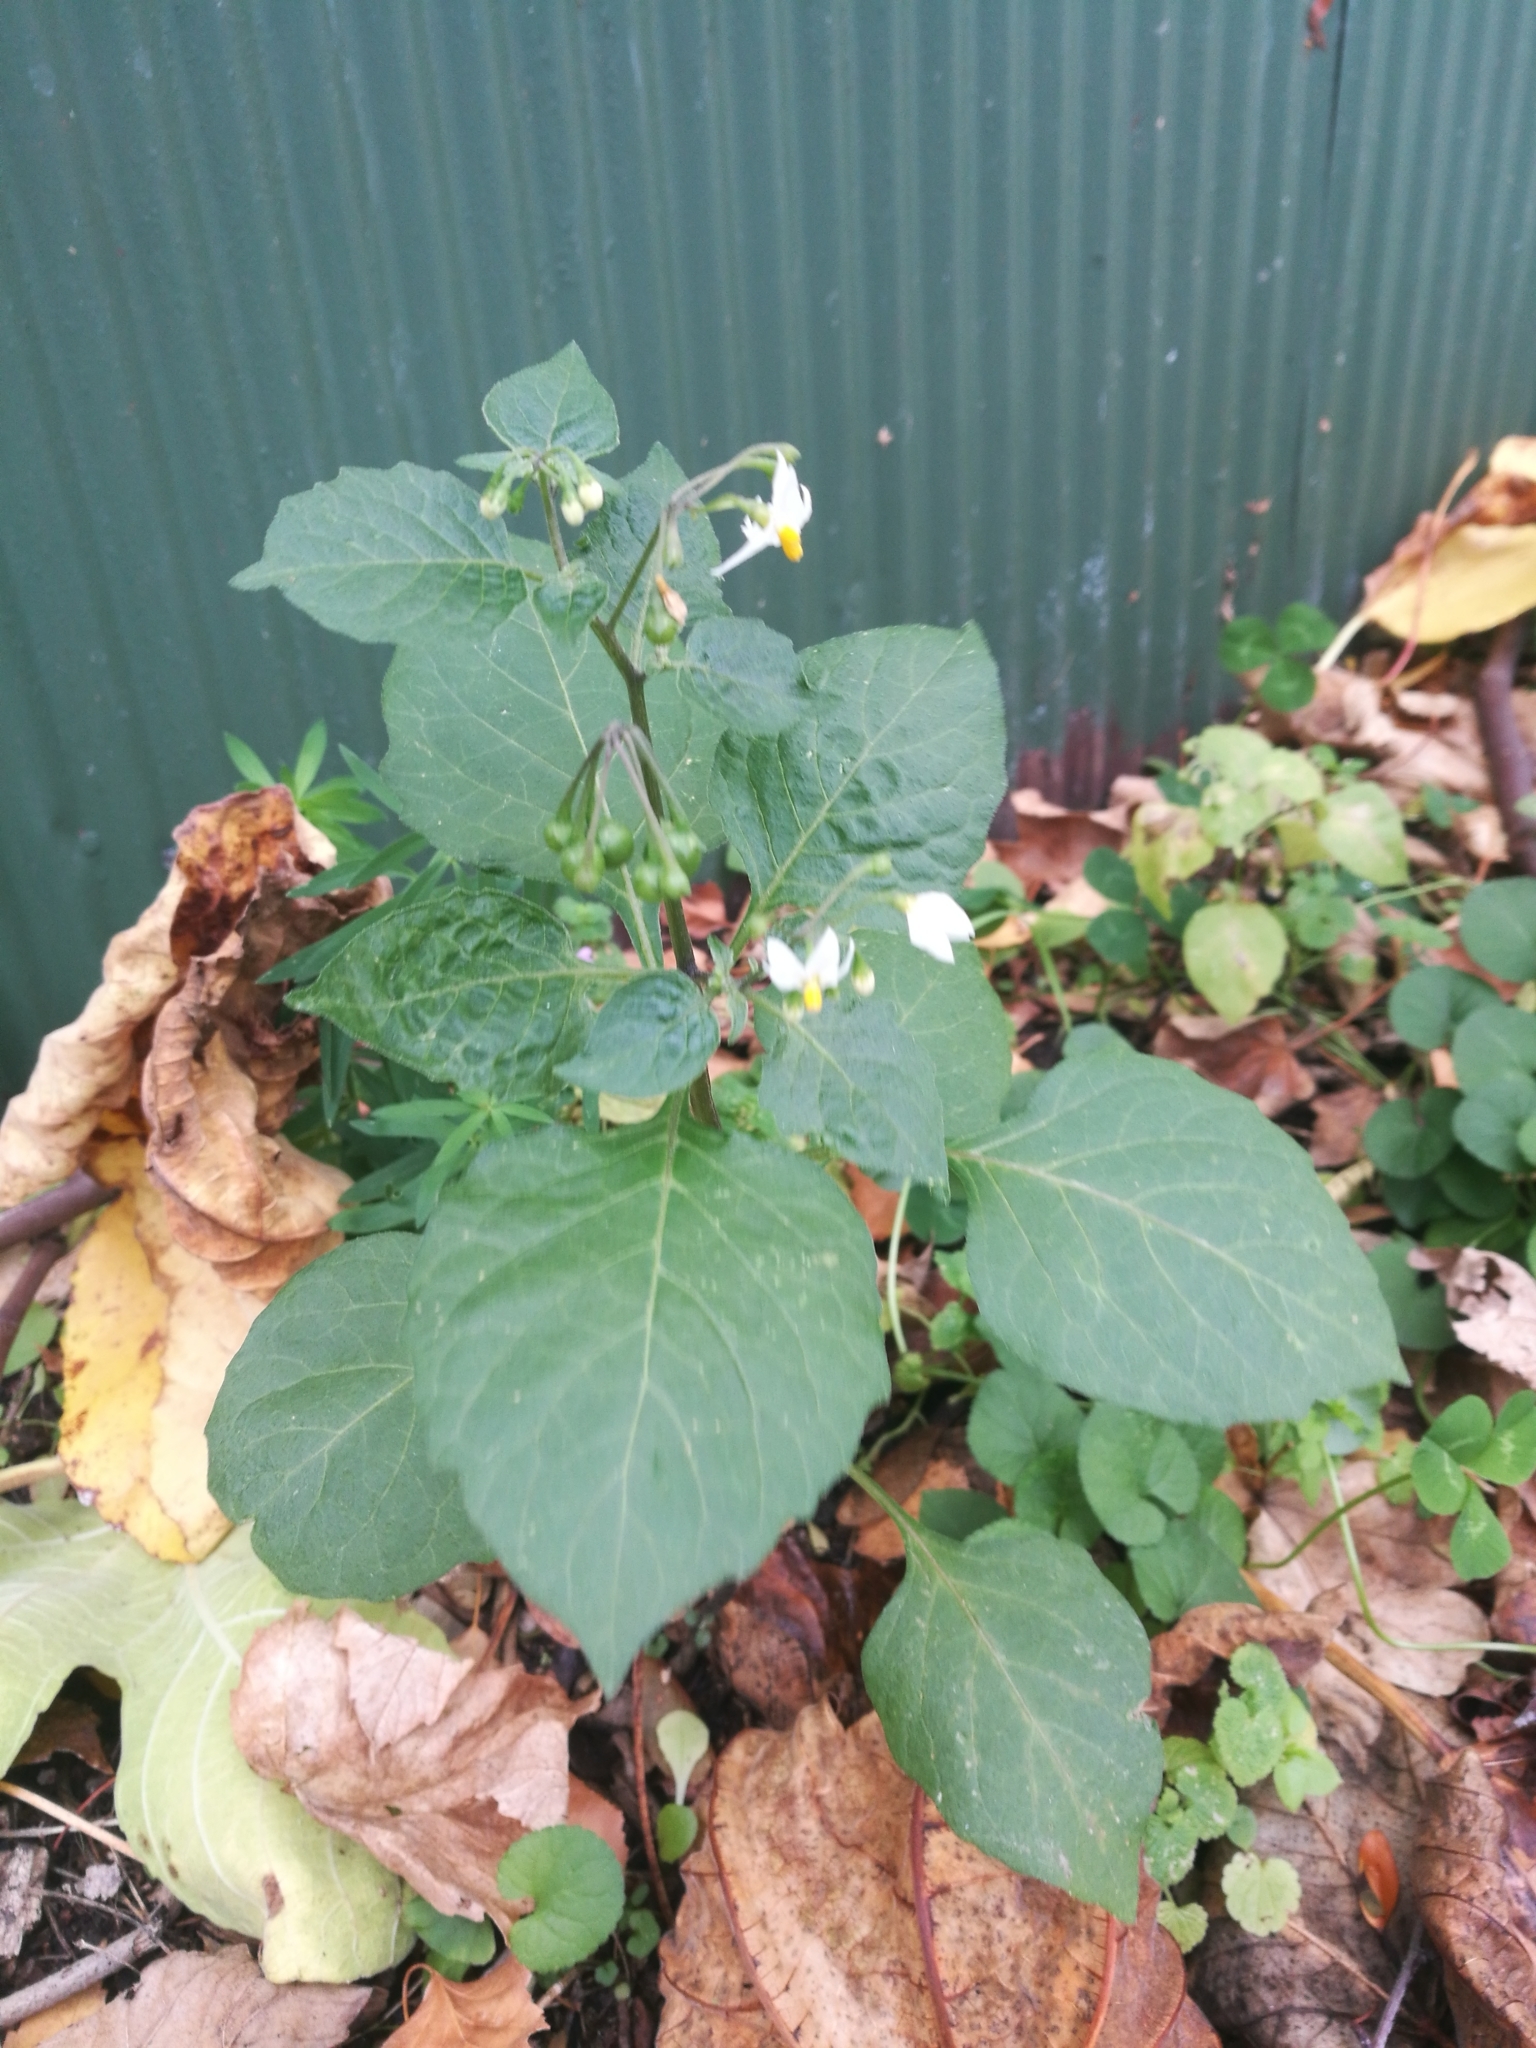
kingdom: Plantae
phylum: Tracheophyta
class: Magnoliopsida
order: Solanales
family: Solanaceae
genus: Solanum
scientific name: Solanum nigrum
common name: Black nightshade
